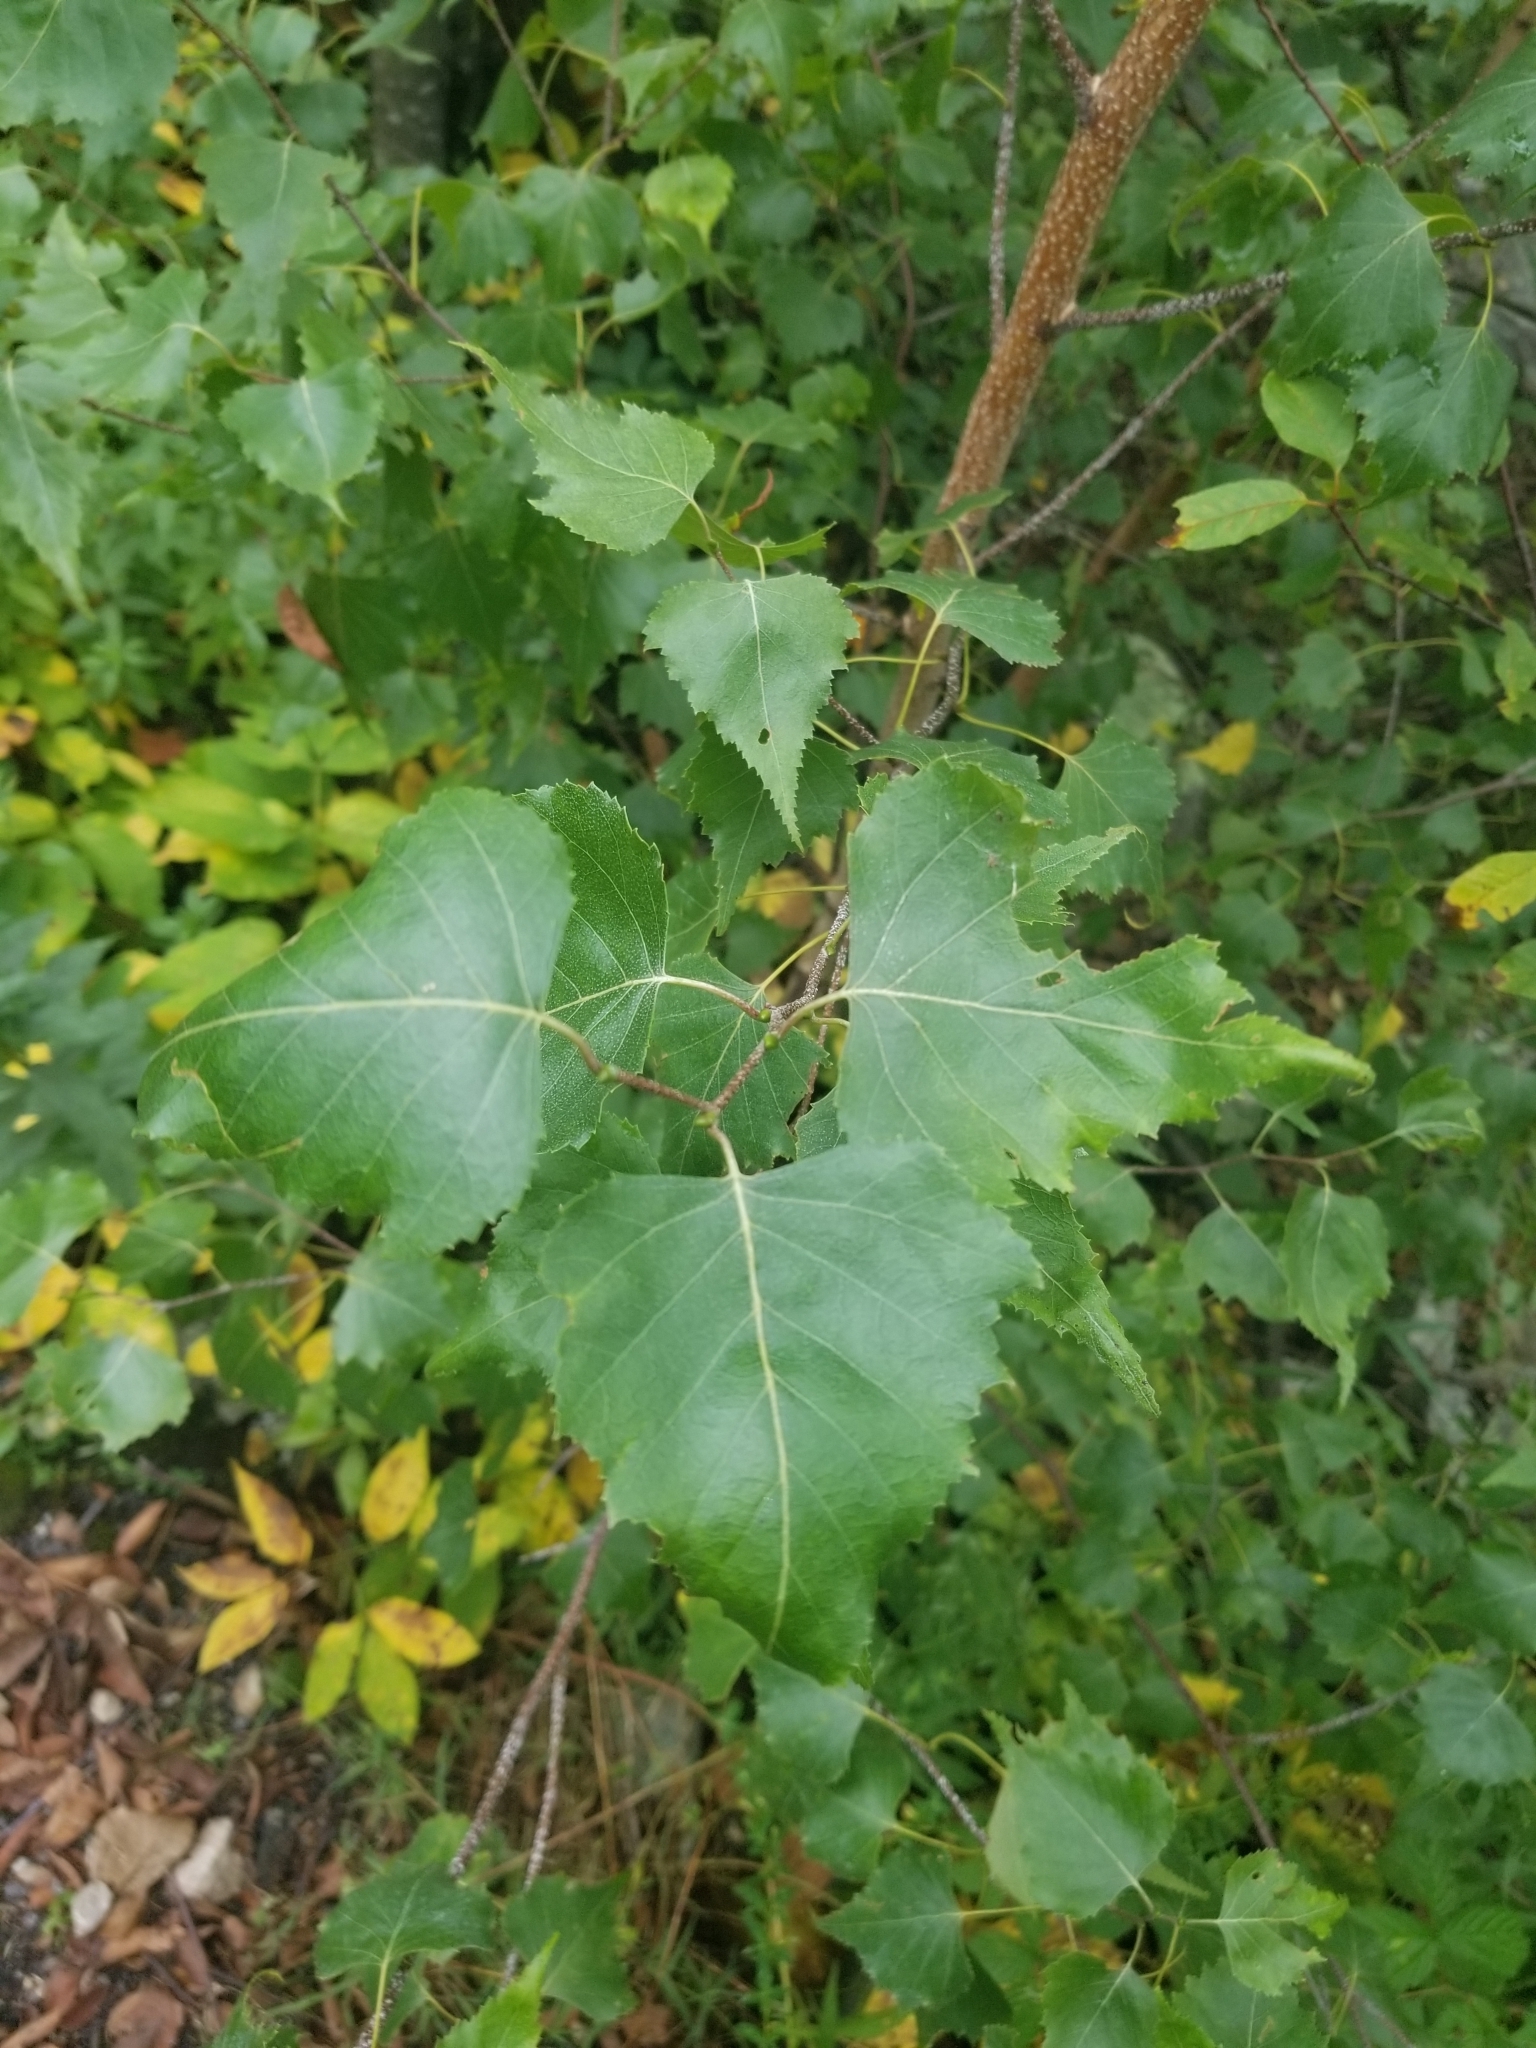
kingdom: Plantae
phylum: Tracheophyta
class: Magnoliopsida
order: Fagales
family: Betulaceae
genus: Betula
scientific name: Betula populifolia
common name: Fire birch
